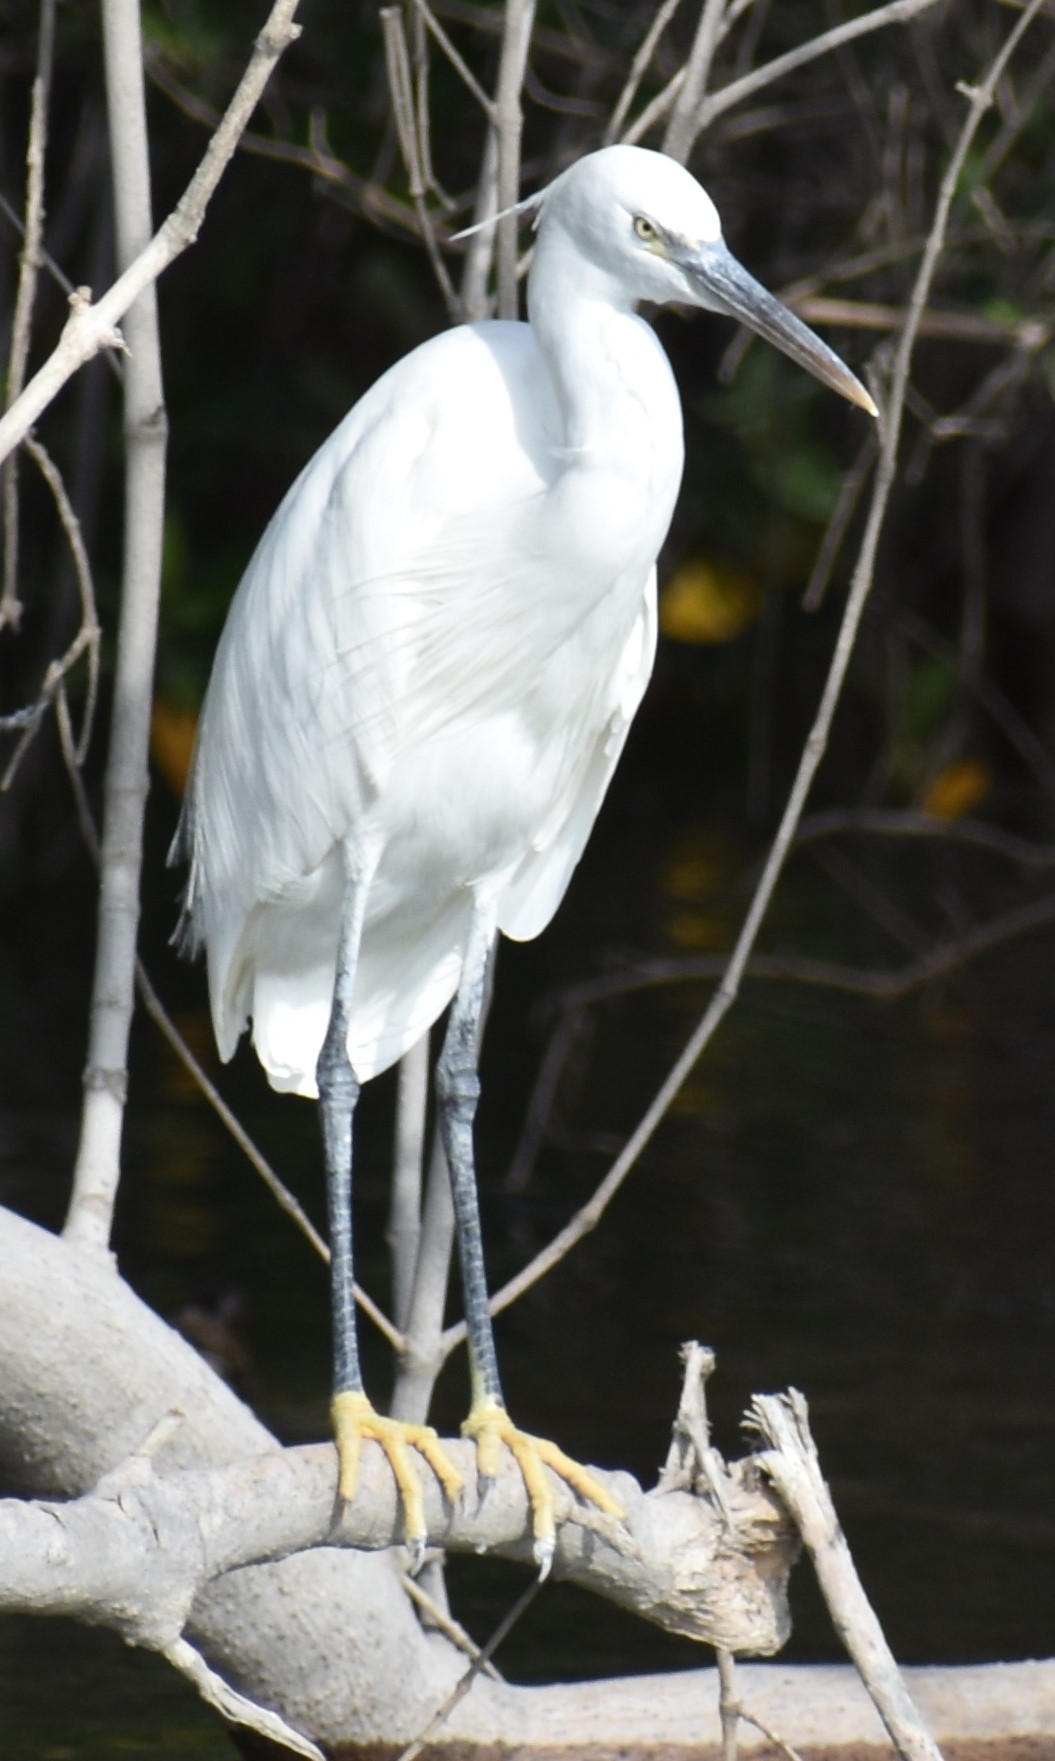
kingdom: Animalia
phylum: Chordata
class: Aves
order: Pelecaniformes
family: Ardeidae
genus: Egretta
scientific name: Egretta gularis
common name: Western reef-heron
